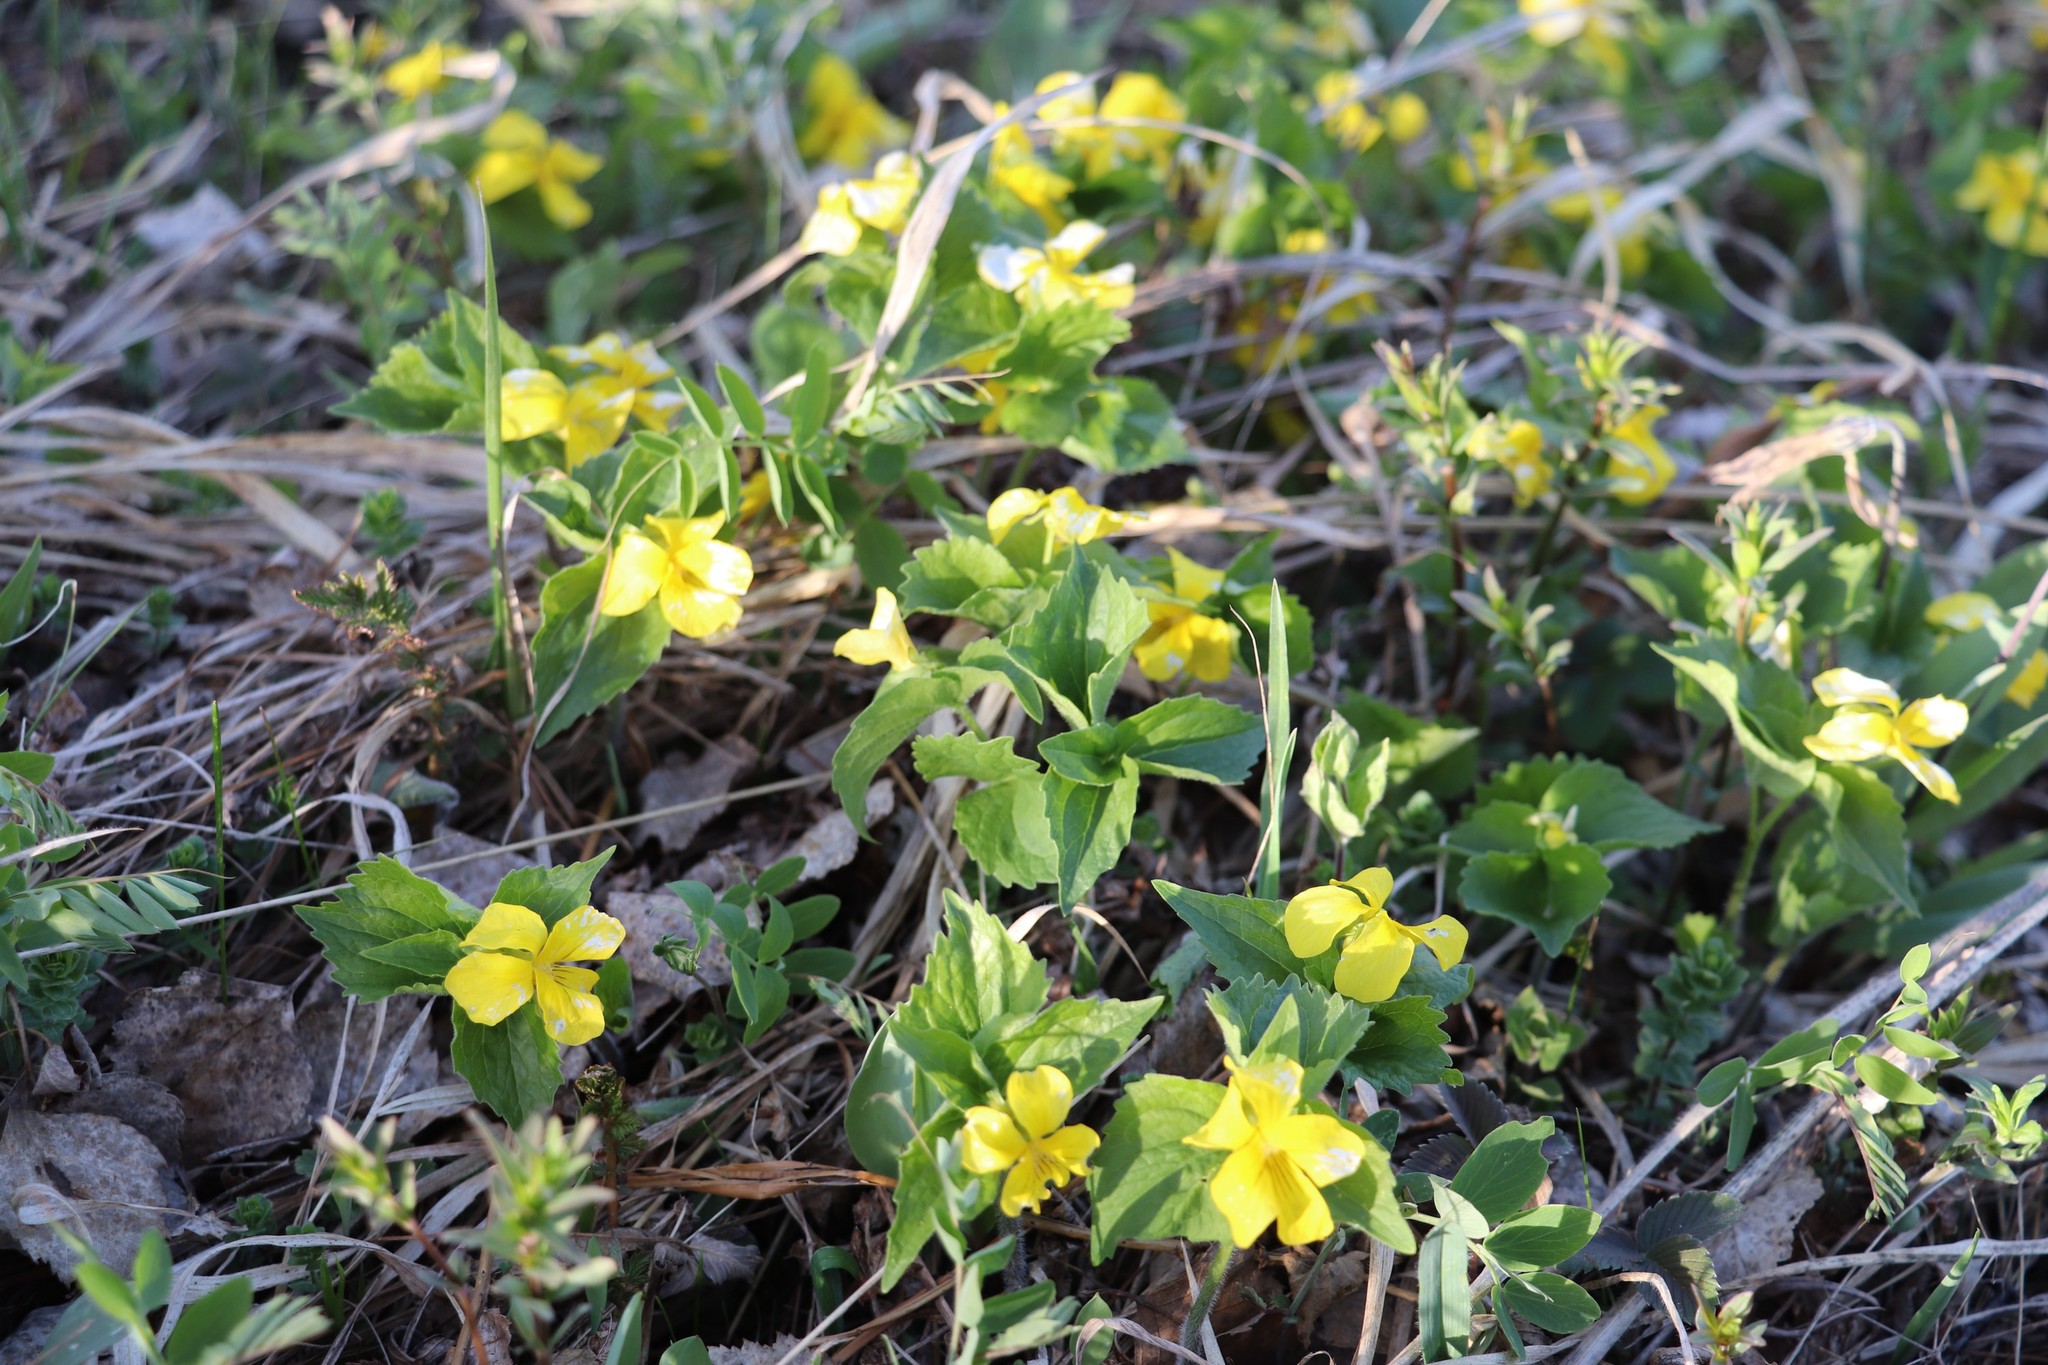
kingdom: Plantae
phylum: Tracheophyta
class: Magnoliopsida
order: Malpighiales
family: Violaceae
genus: Viola
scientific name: Viola uniflora
